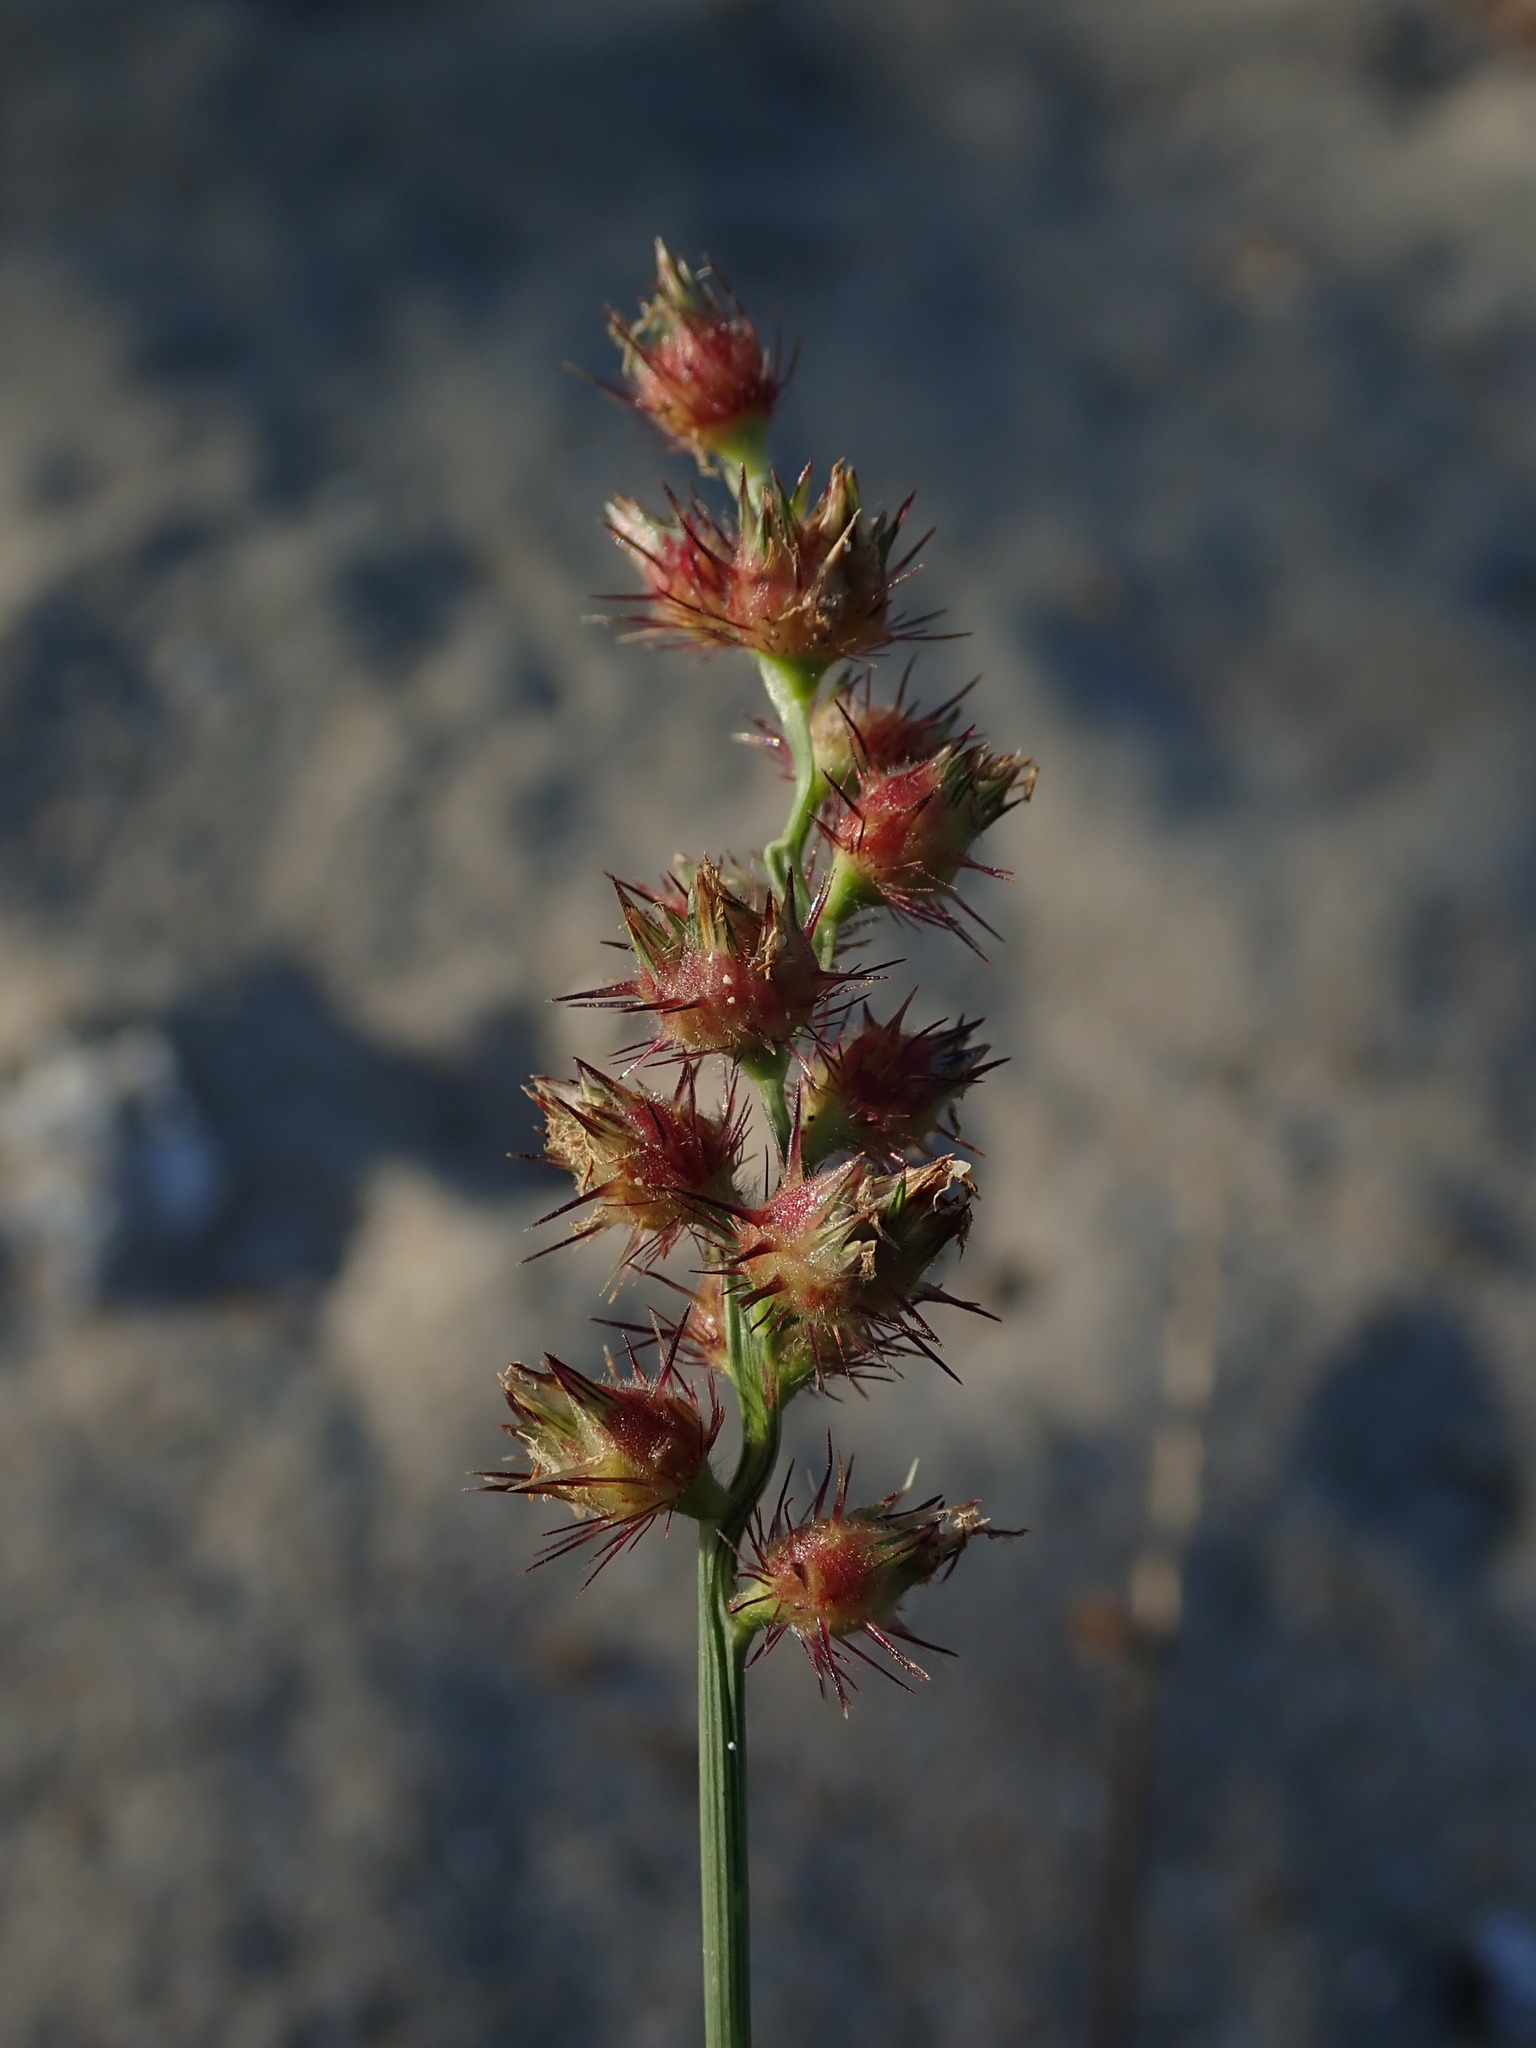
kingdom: Plantae
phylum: Tracheophyta
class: Liliopsida
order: Poales
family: Poaceae
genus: Cenchrus
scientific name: Cenchrus echinatus
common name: Southern sandbur
